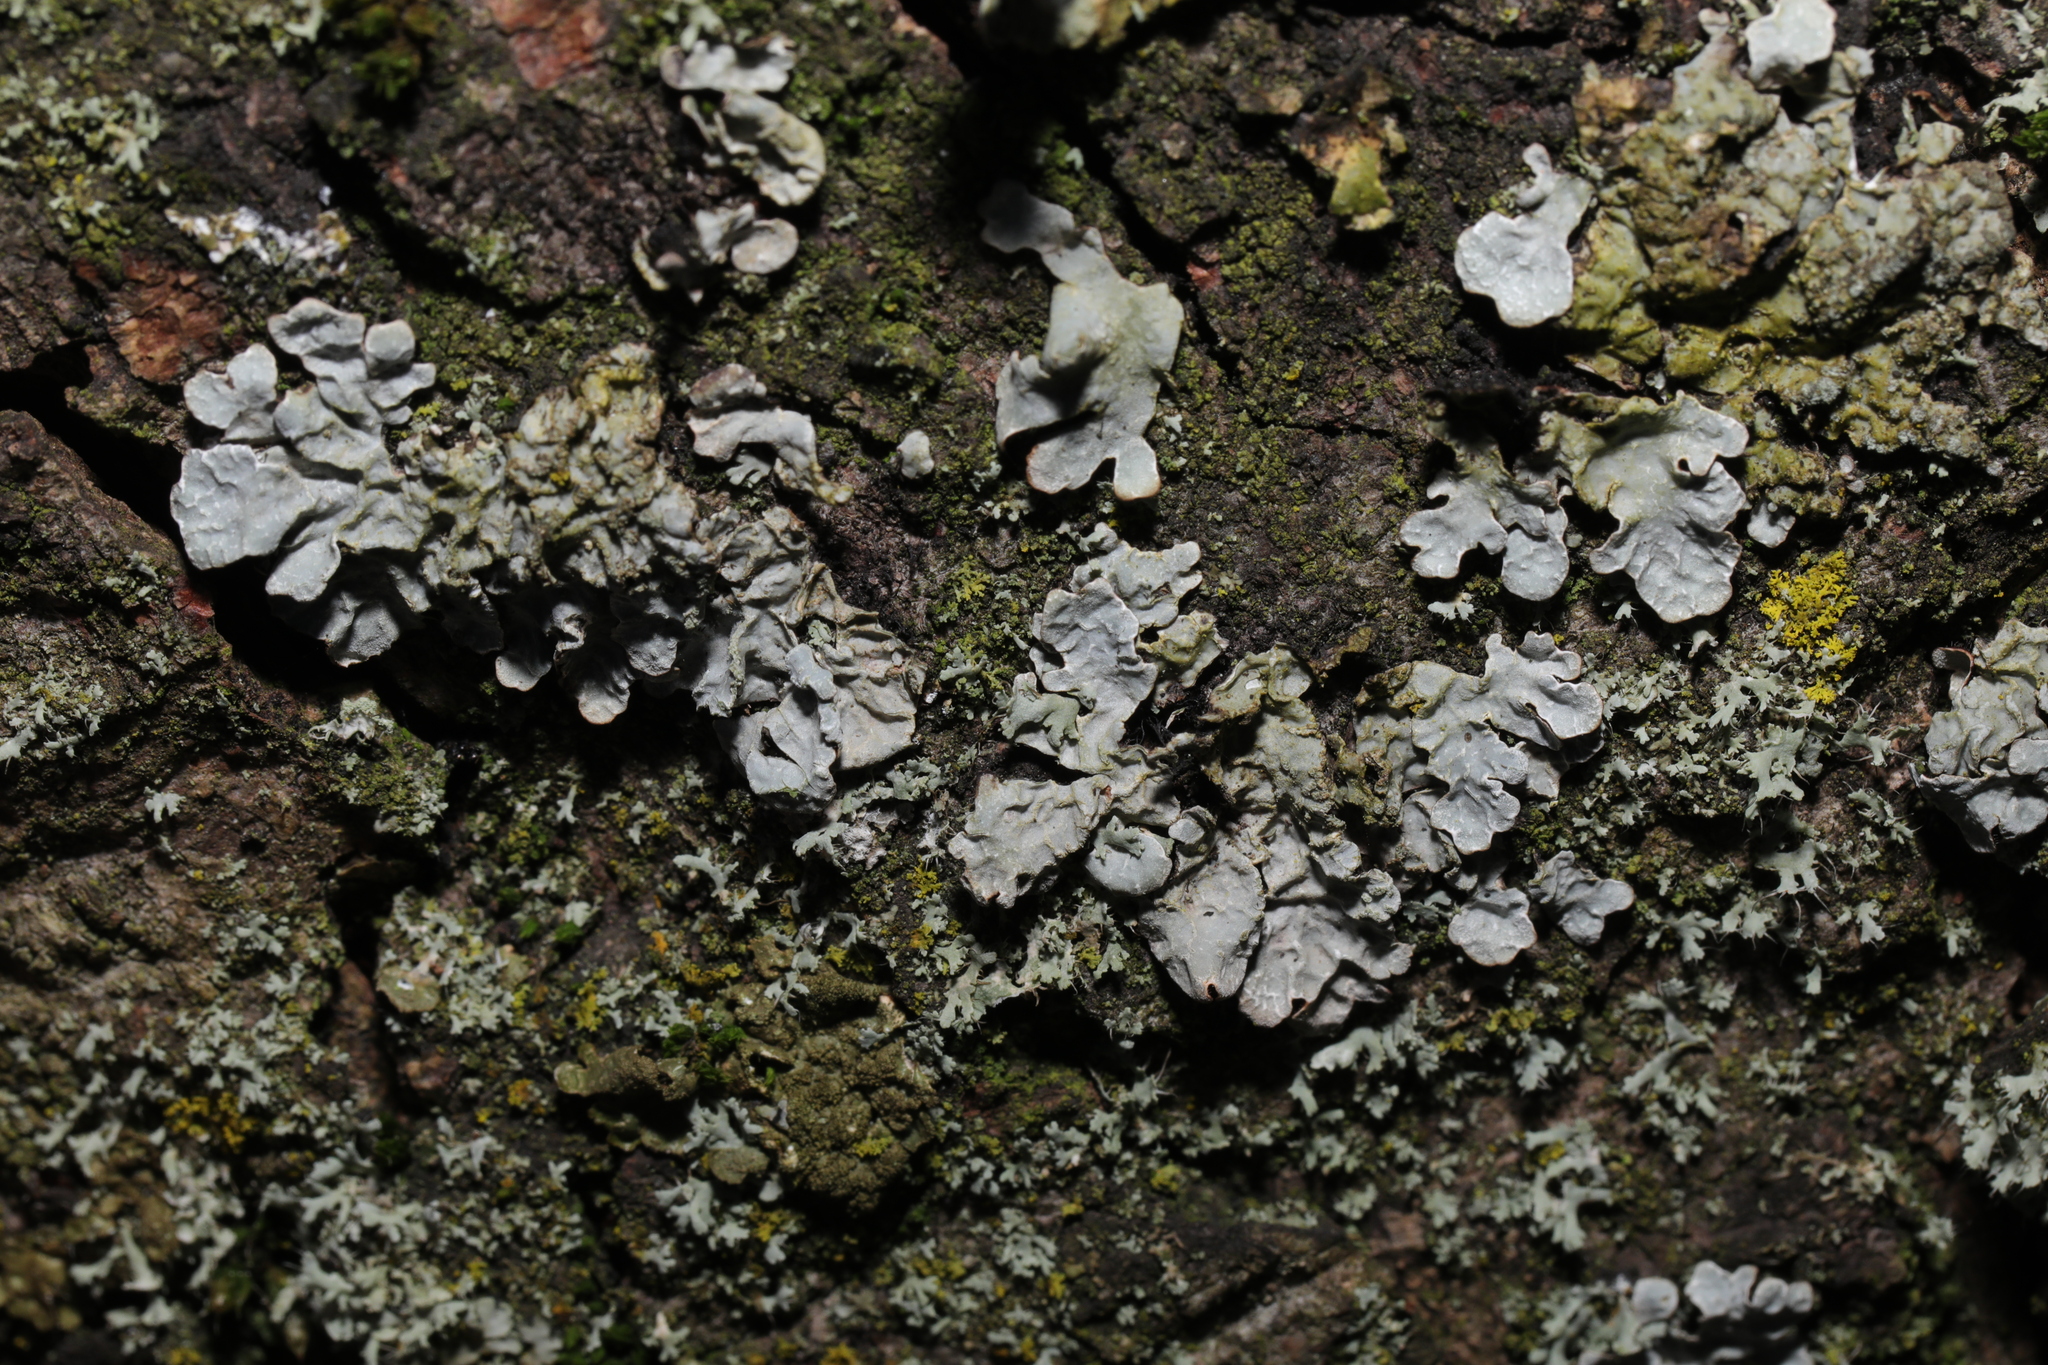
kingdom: Fungi
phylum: Ascomycota
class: Lecanoromycetes
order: Lecanorales
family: Parmeliaceae
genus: Parmelia
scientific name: Parmelia sulcata
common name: Netted shield lichen
